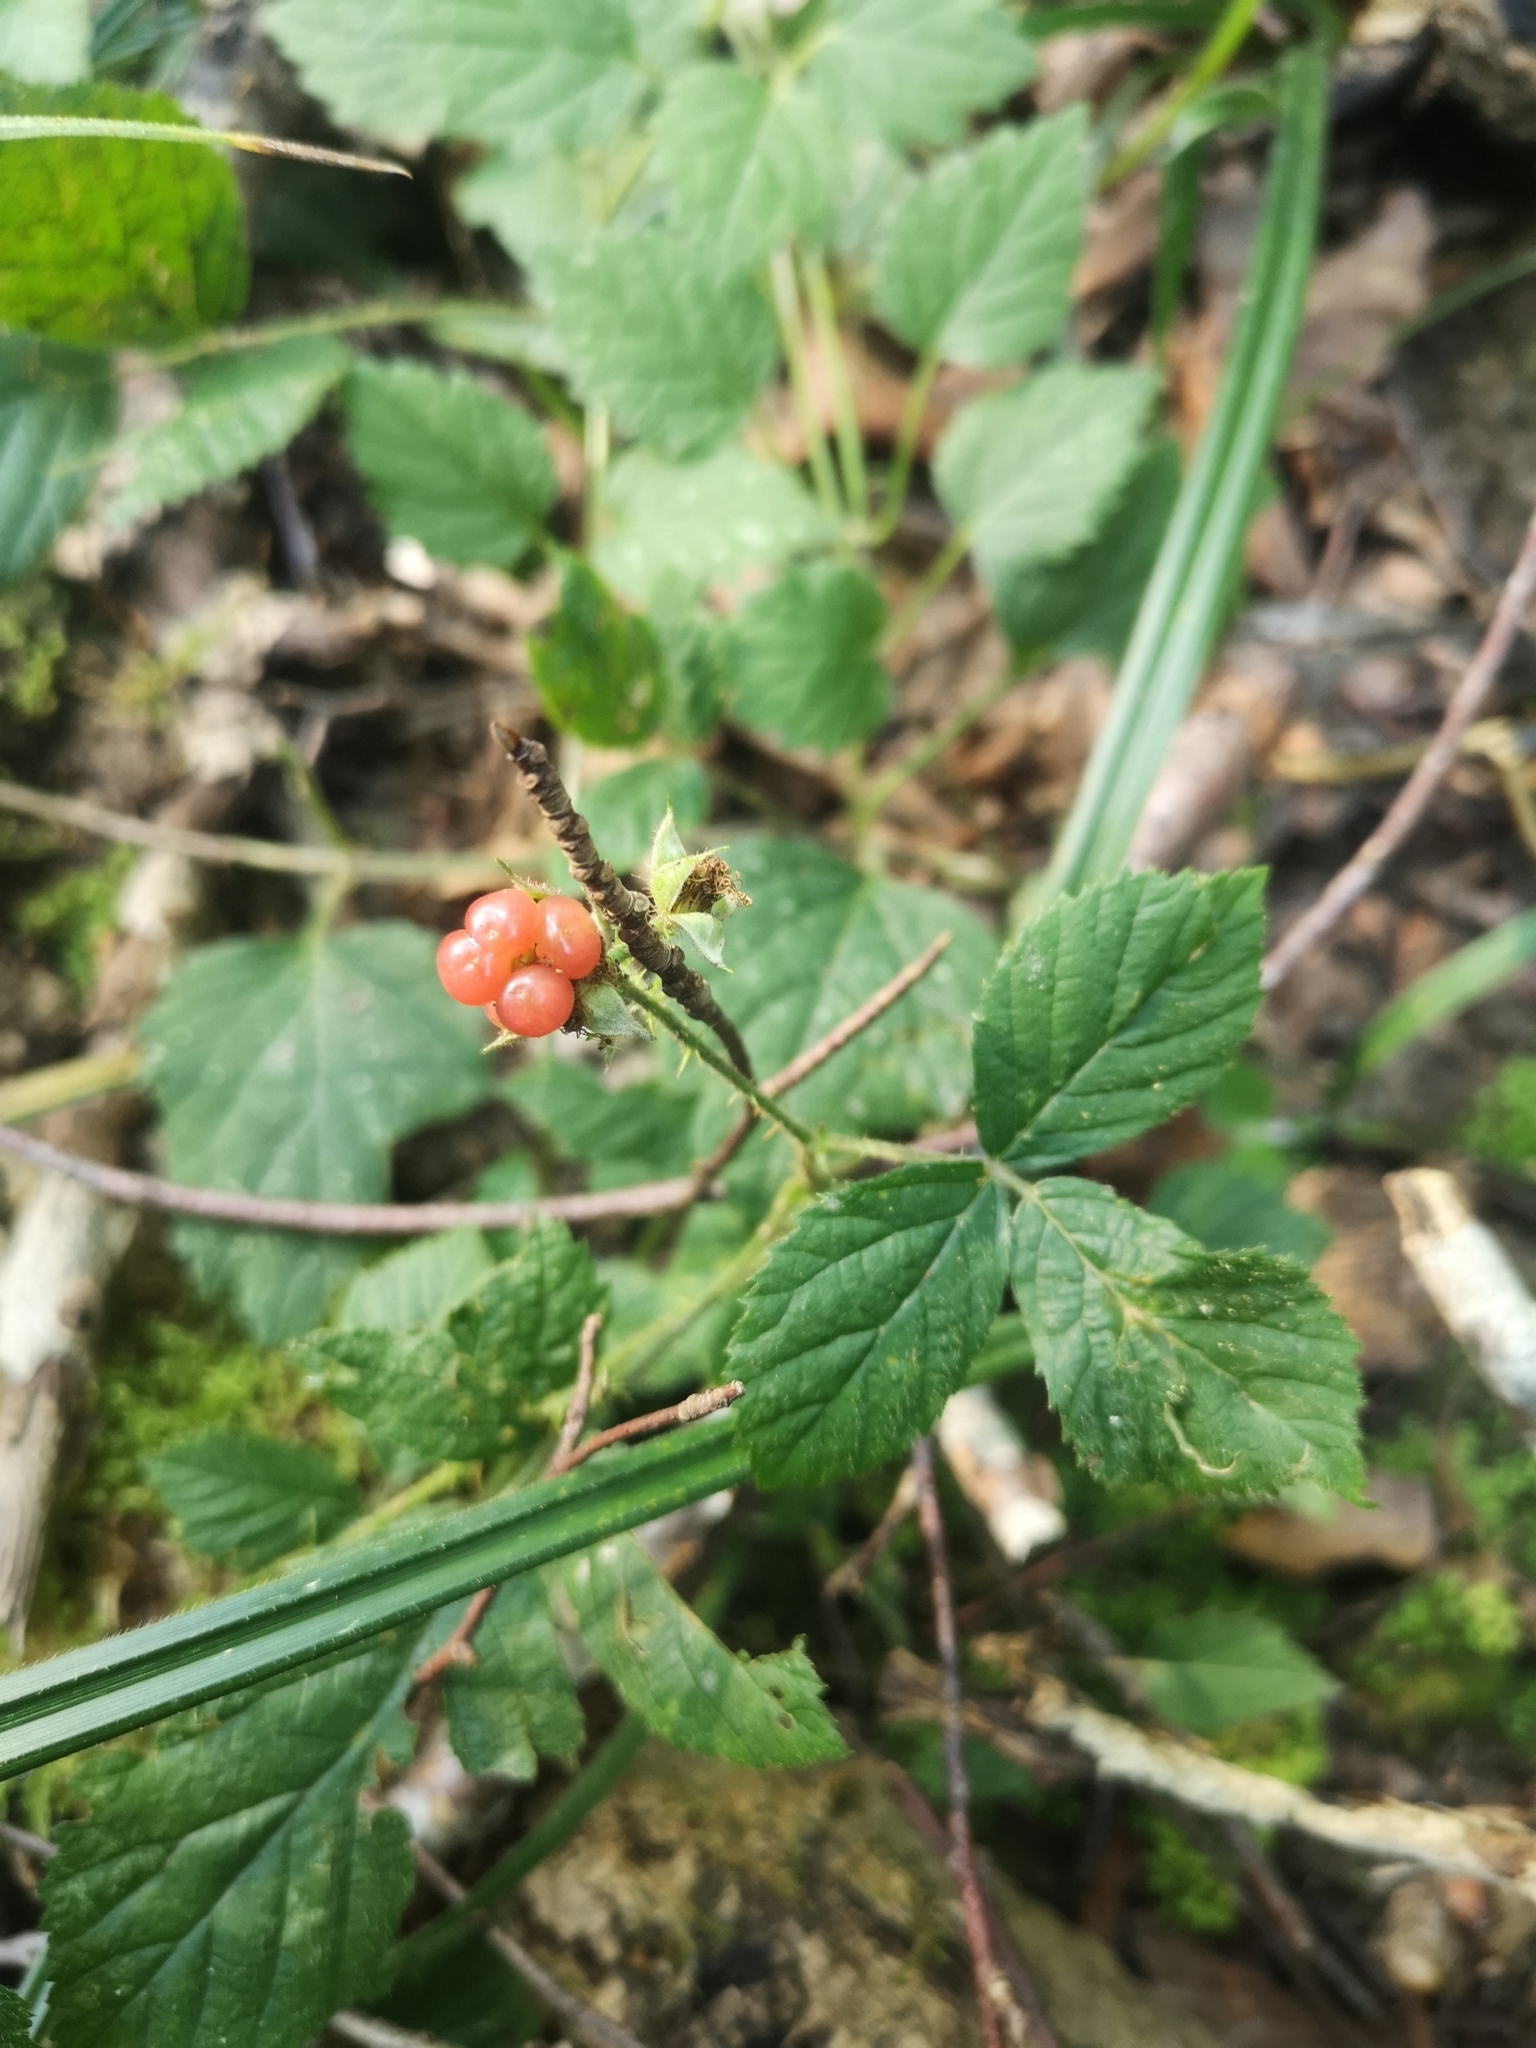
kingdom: Plantae
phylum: Tracheophyta
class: Magnoliopsida
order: Rosales
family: Rosaceae
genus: Rubus
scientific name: Rubus saxatilis
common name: Stone bramble
